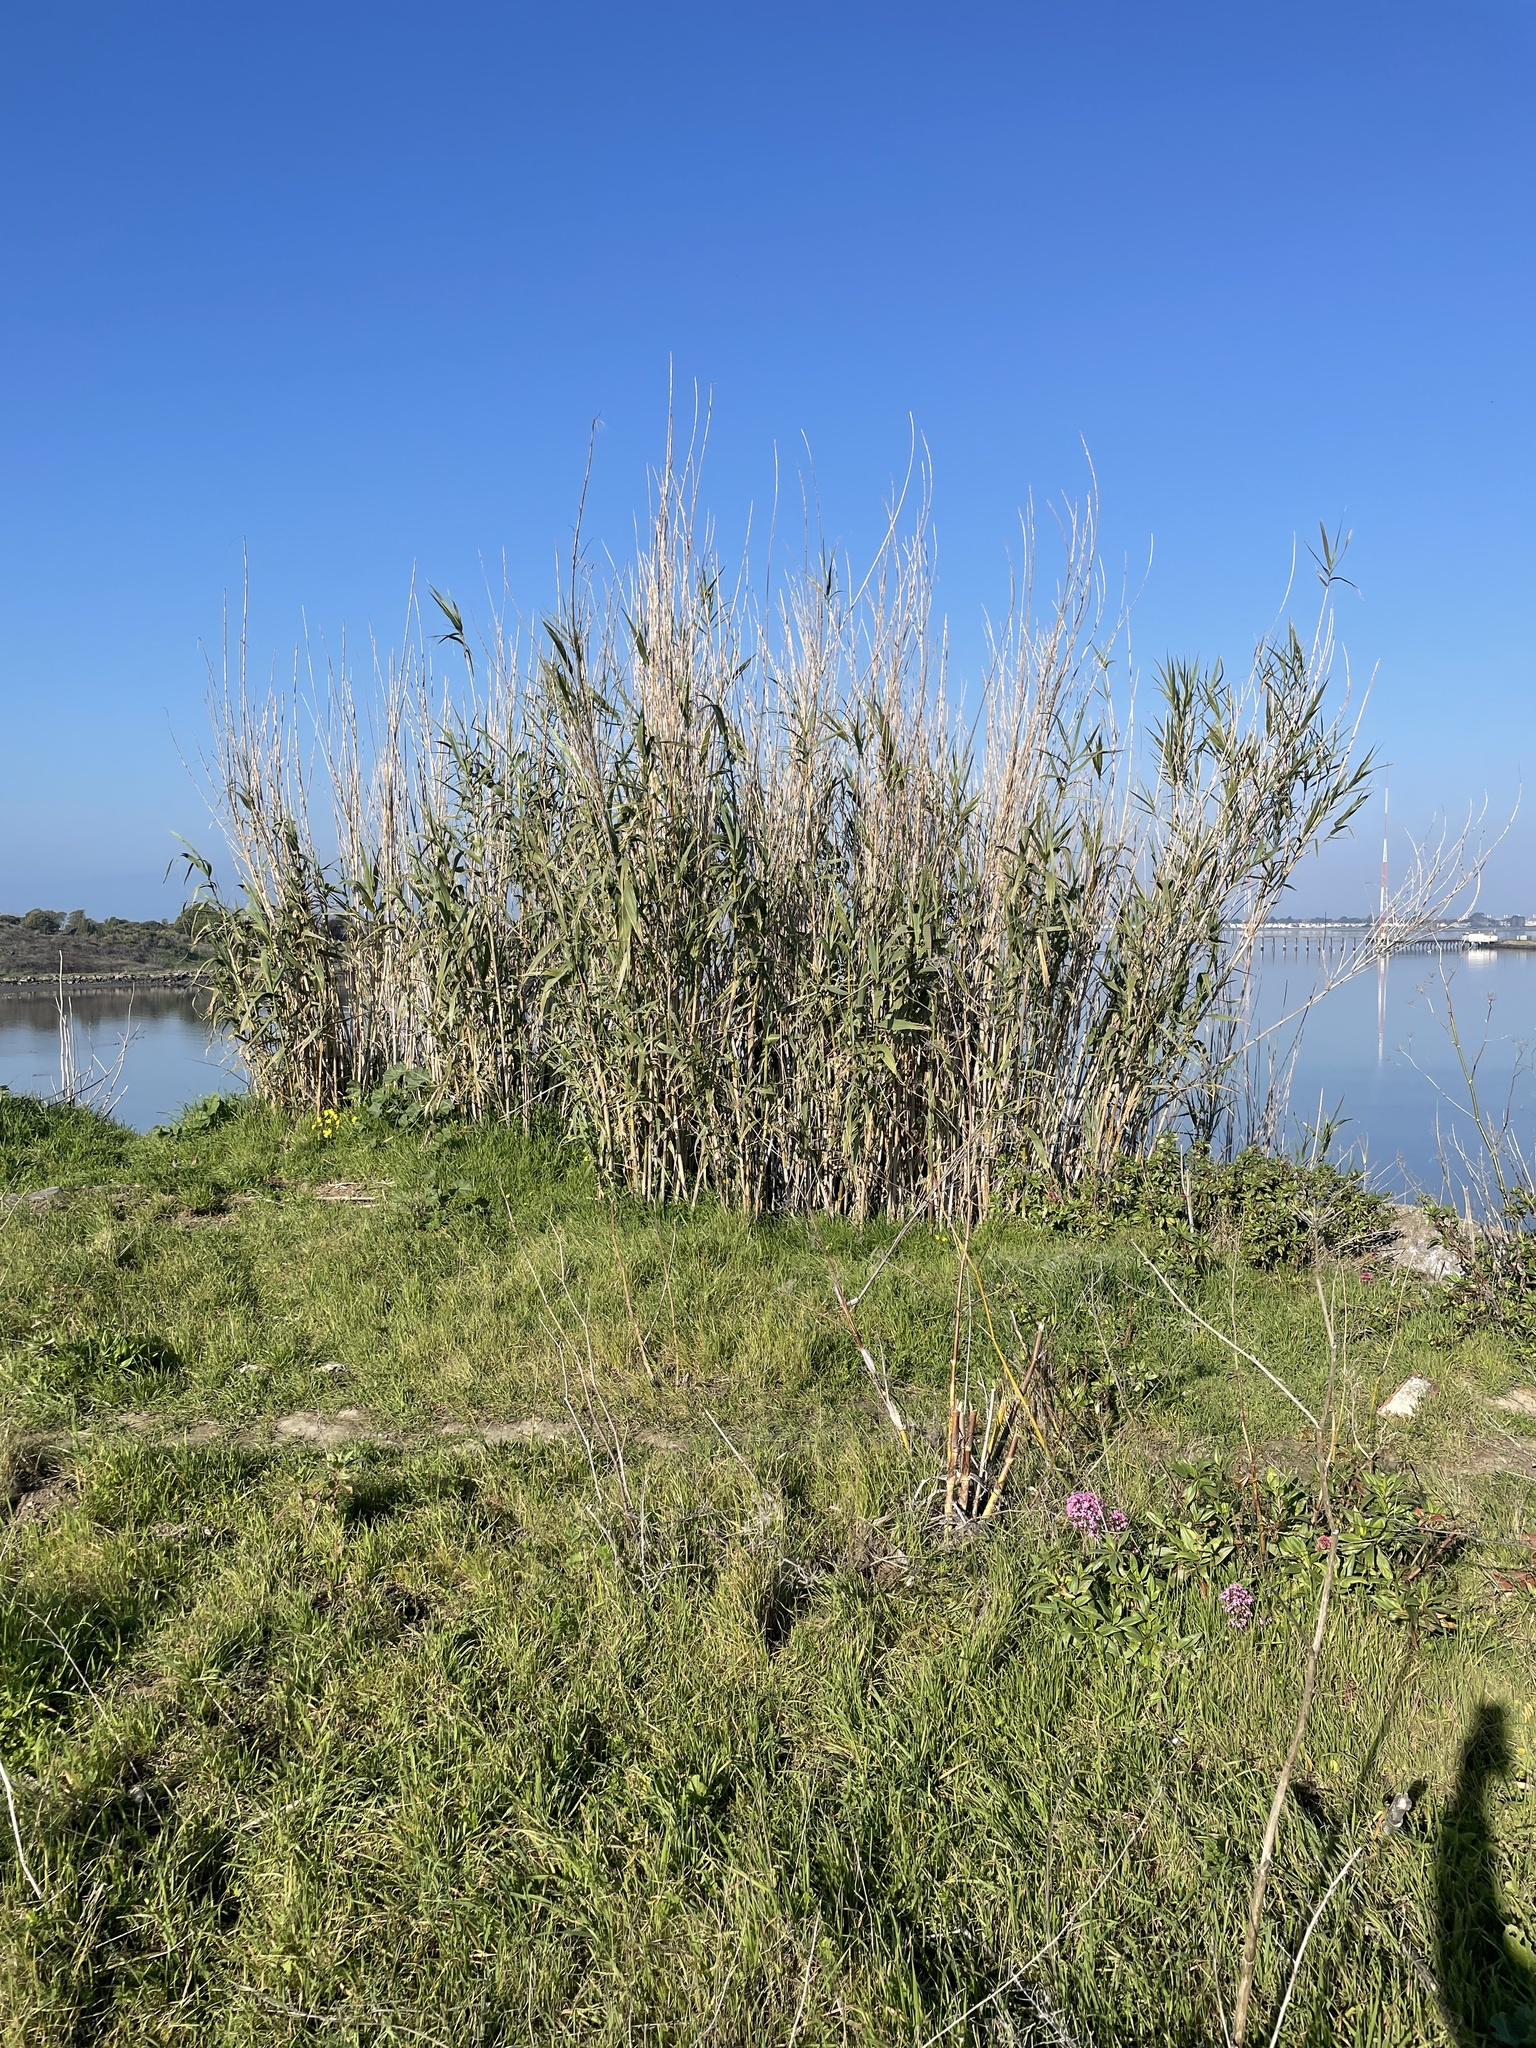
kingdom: Plantae
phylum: Tracheophyta
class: Liliopsida
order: Poales
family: Poaceae
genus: Arundo
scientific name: Arundo donax
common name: Giant reed
